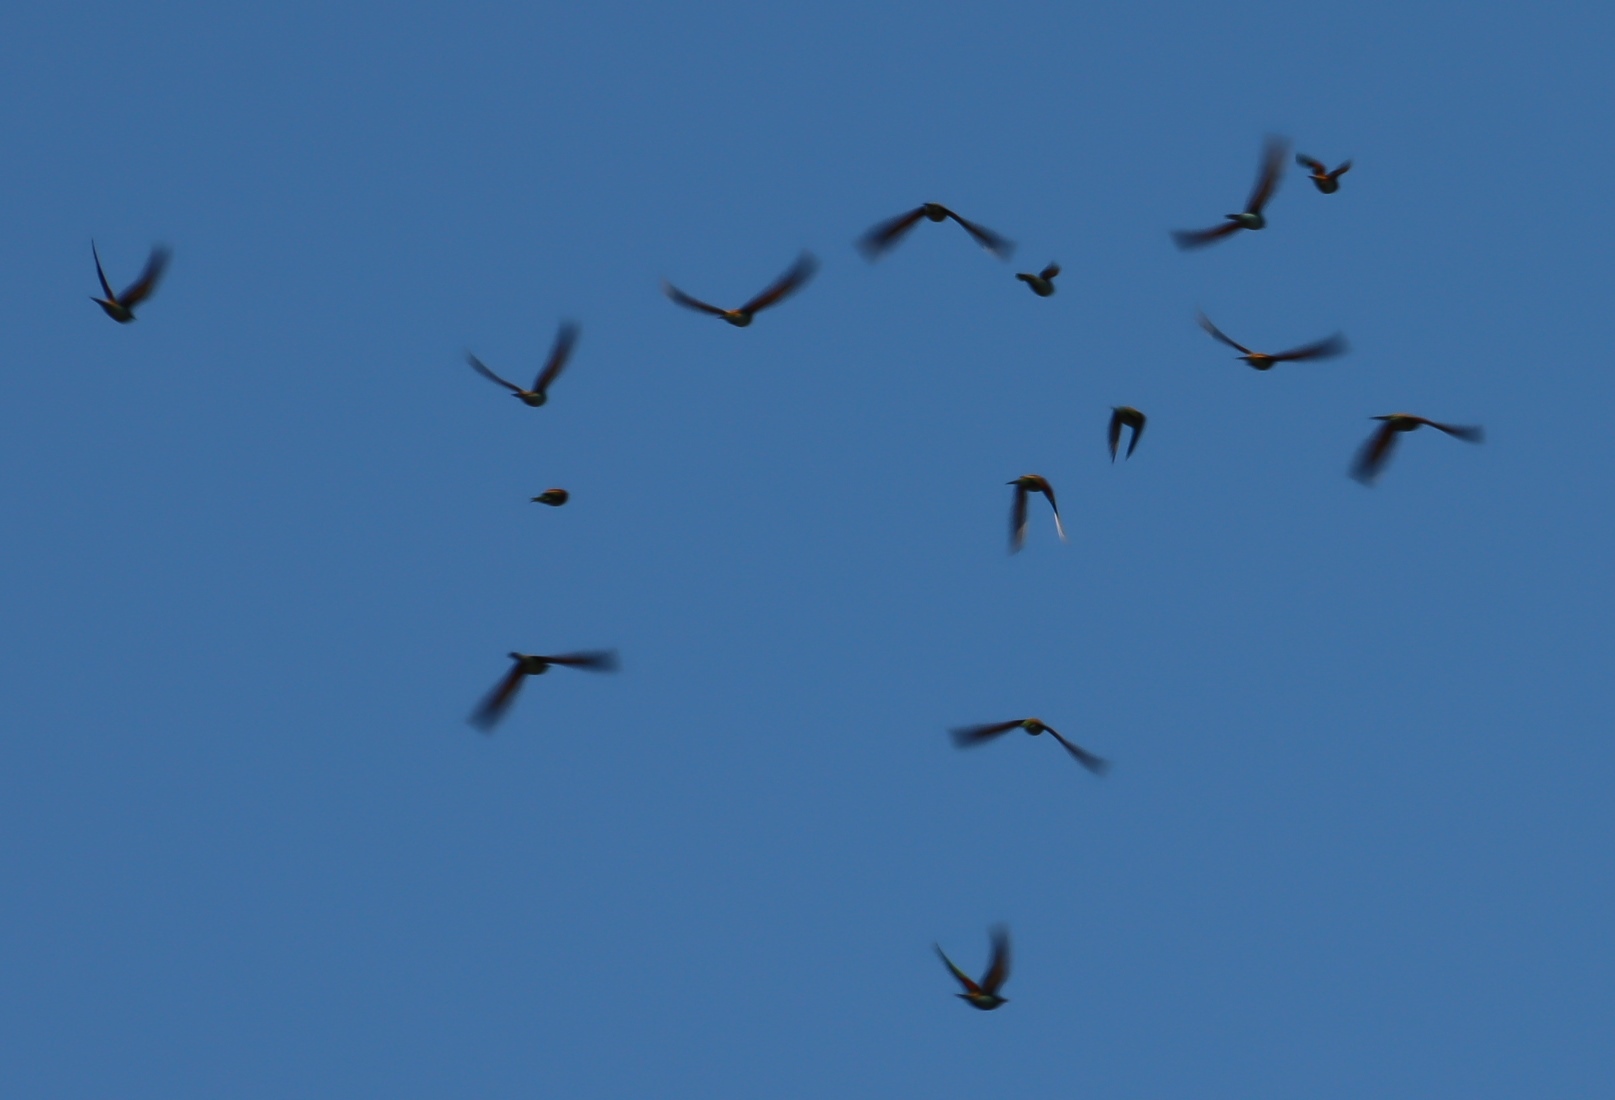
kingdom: Animalia
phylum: Chordata
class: Aves
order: Coraciiformes
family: Meropidae
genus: Merops
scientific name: Merops apiaster
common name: European bee-eater
